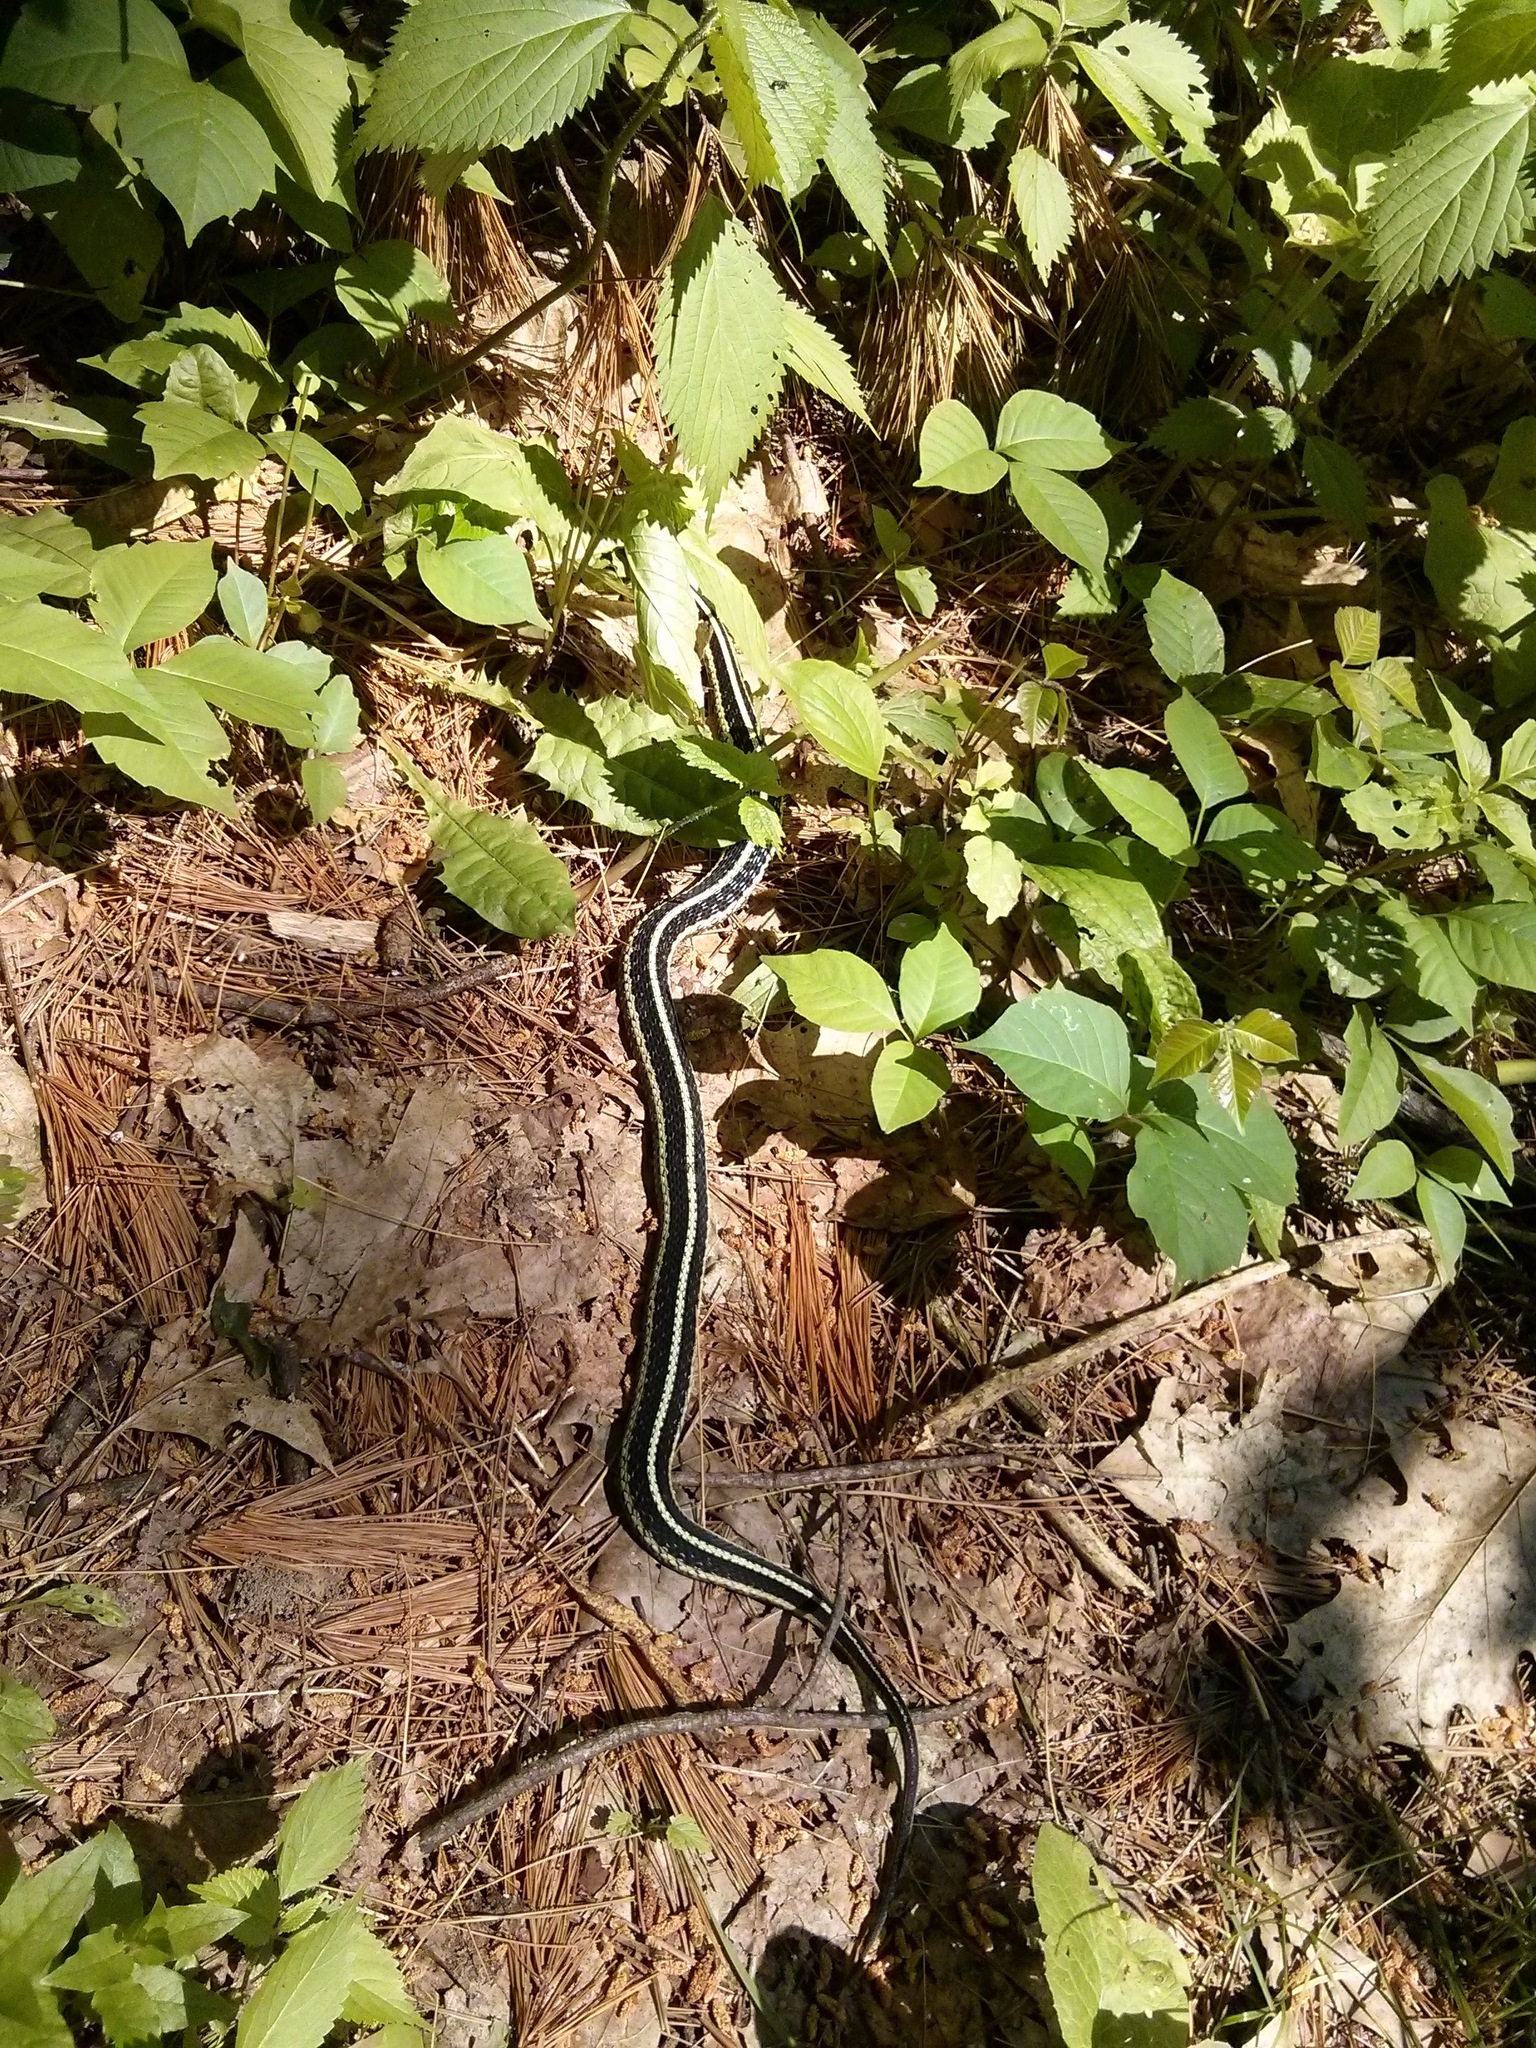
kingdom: Animalia
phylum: Chordata
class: Squamata
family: Colubridae
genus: Thamnophis
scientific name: Thamnophis sirtalis
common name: Common garter snake
